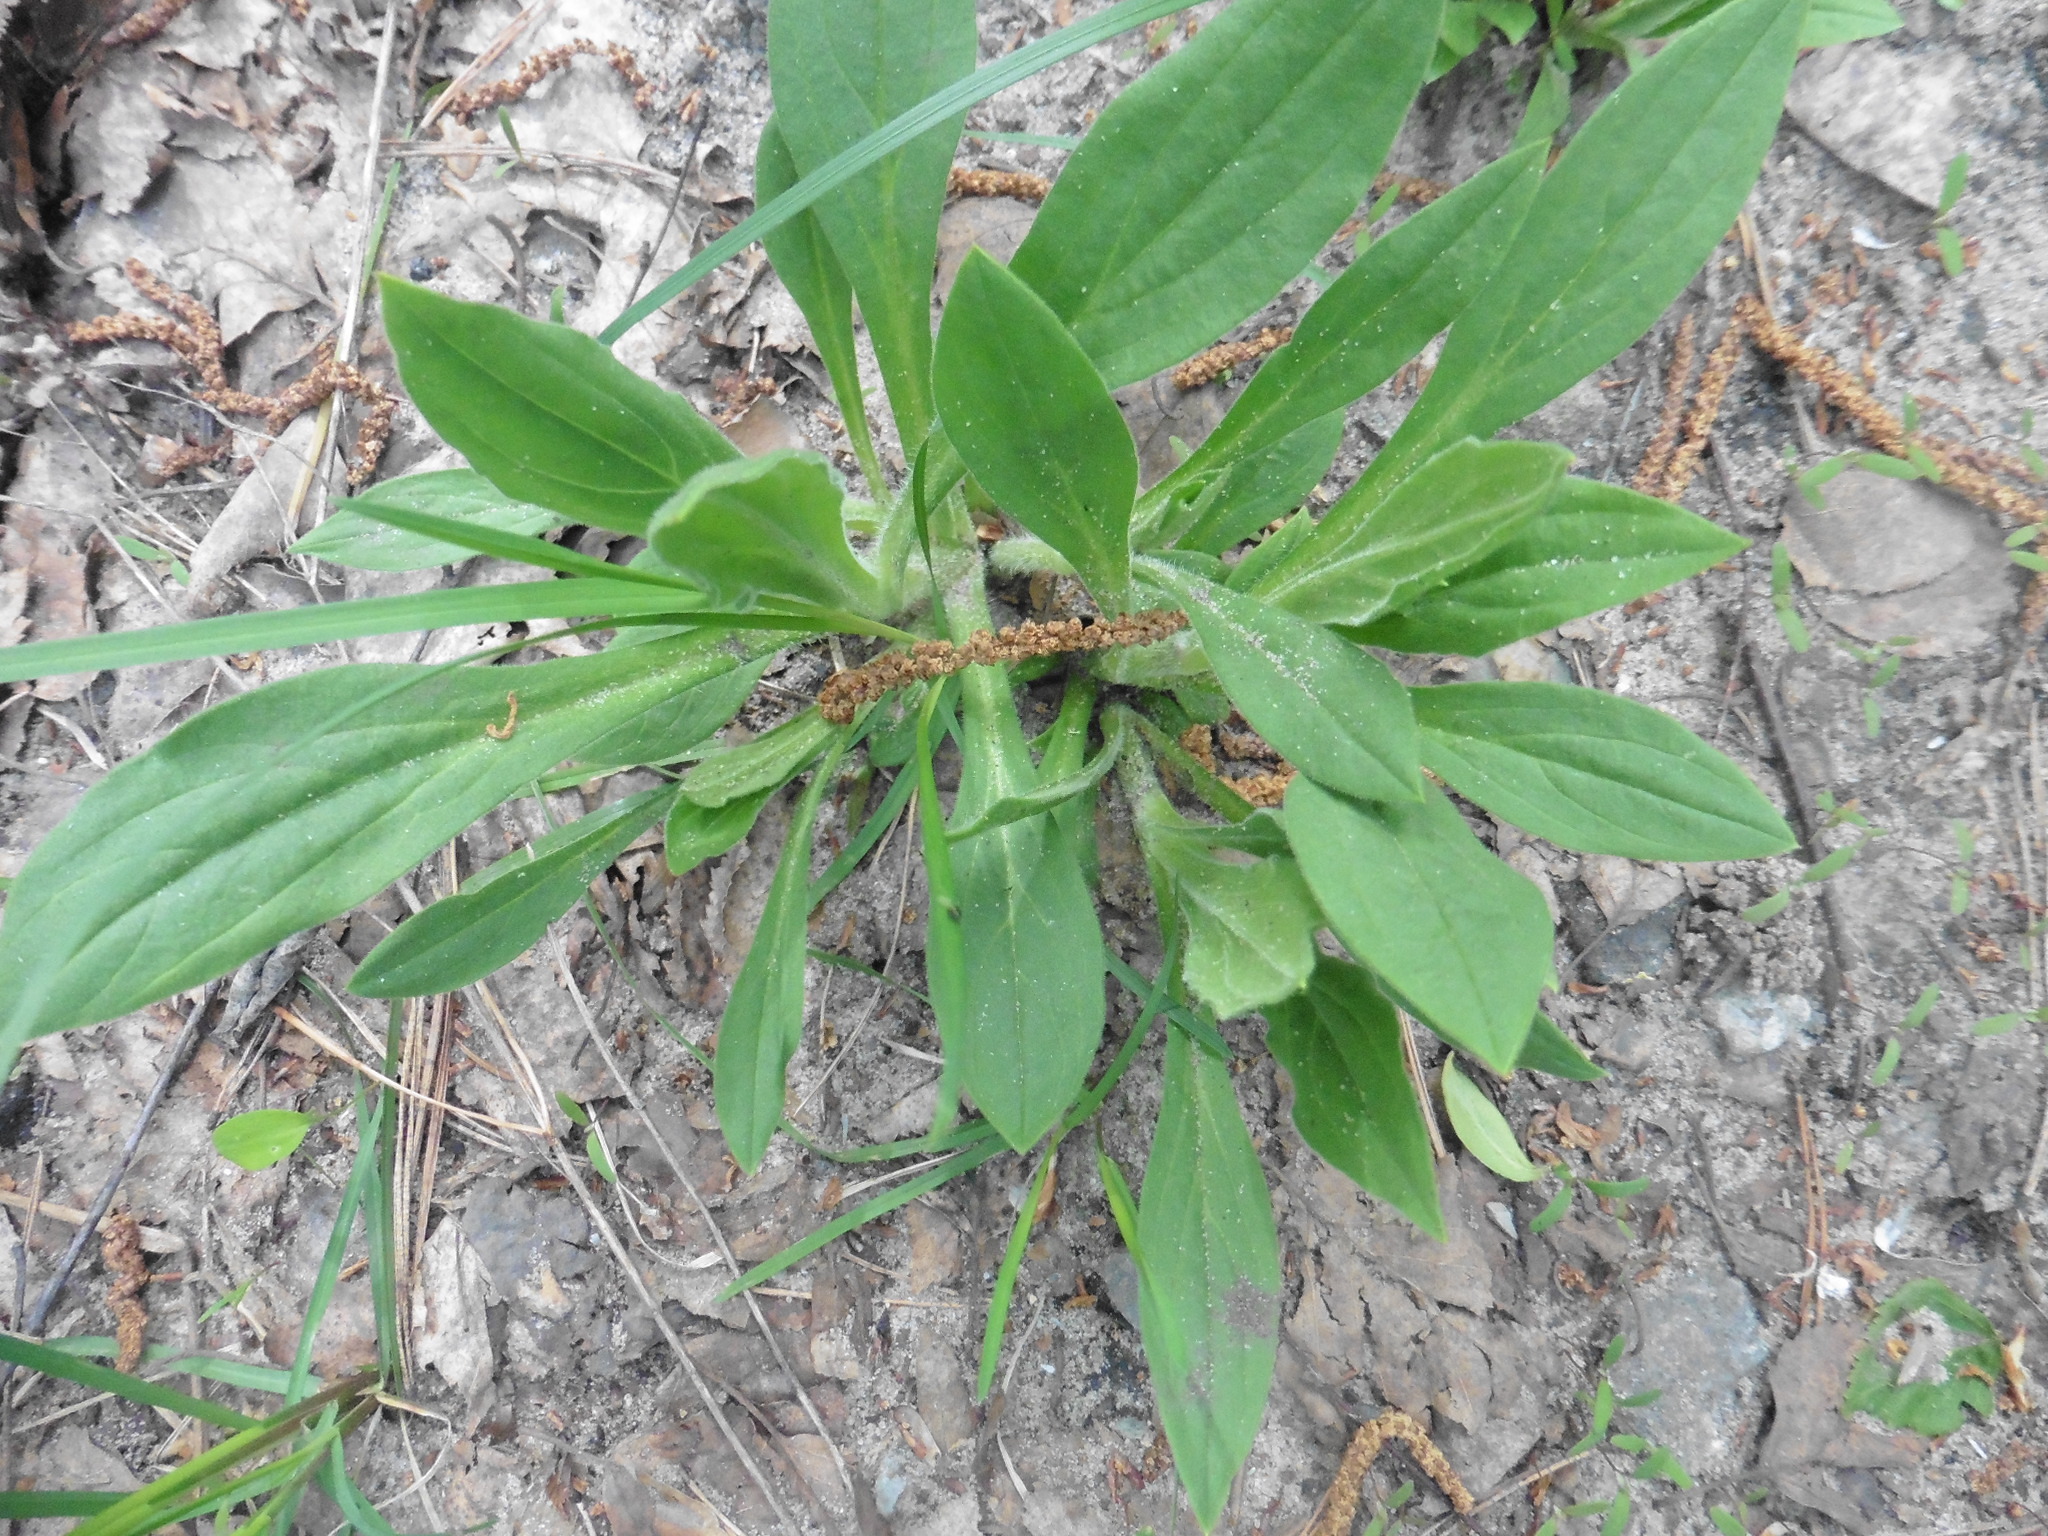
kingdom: Plantae
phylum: Tracheophyta
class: Magnoliopsida
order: Caryophyllales
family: Caryophyllaceae
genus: Silene
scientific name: Silene nutans
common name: Nottingham catchfly
